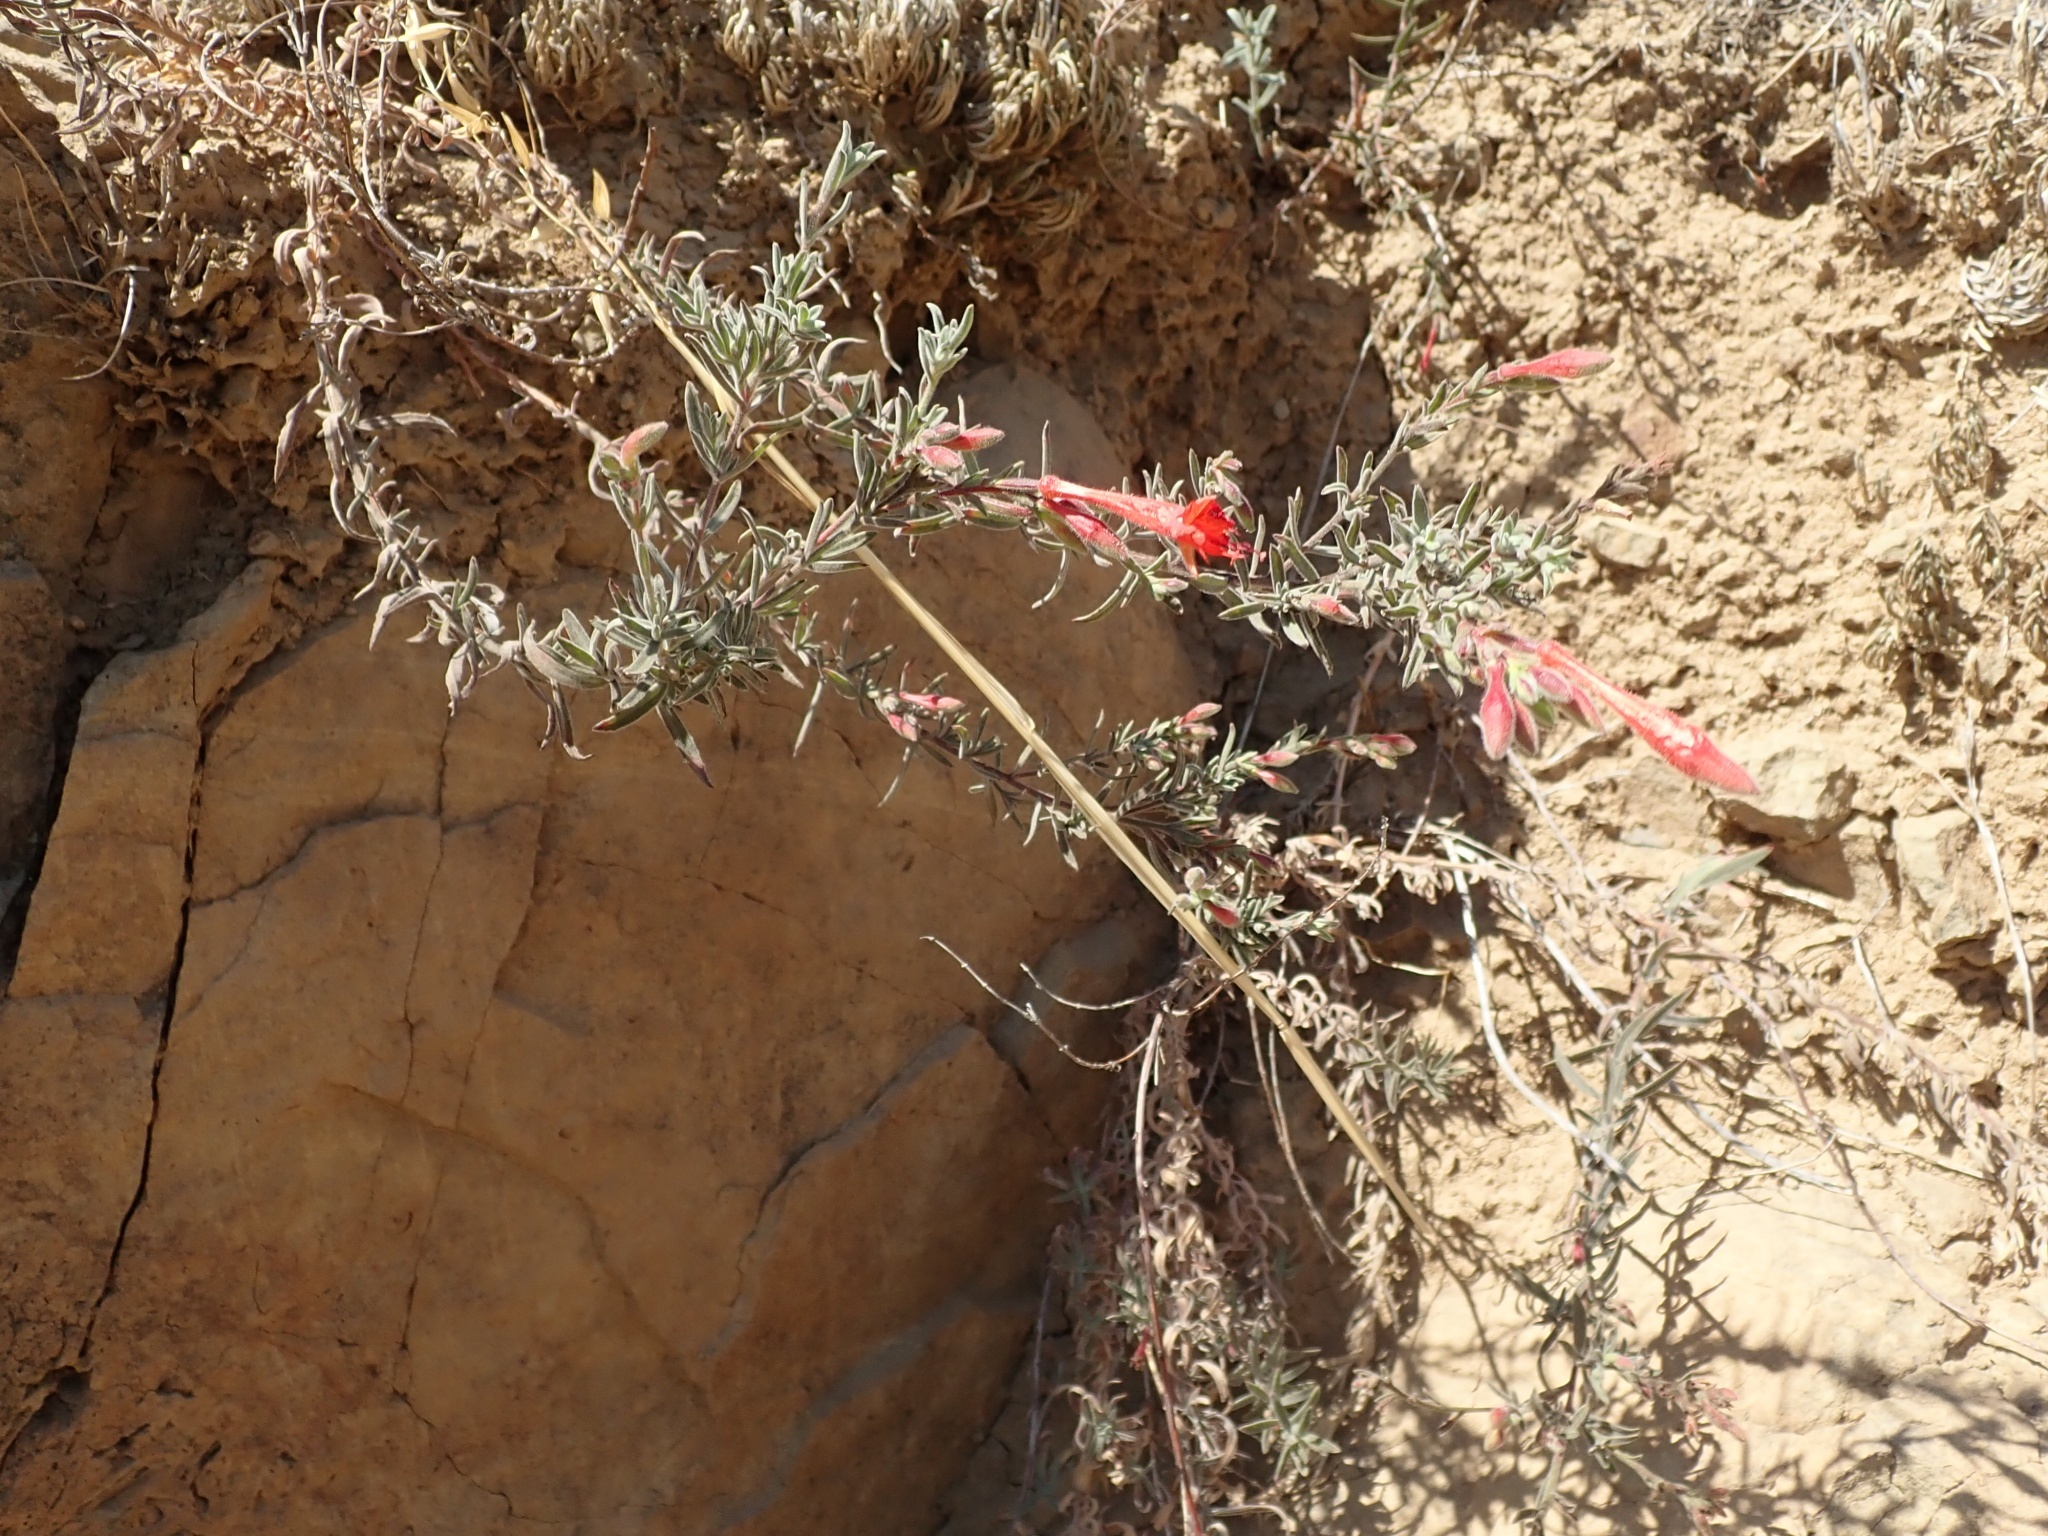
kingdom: Plantae
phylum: Tracheophyta
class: Magnoliopsida
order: Myrtales
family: Onagraceae
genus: Epilobium
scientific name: Epilobium canum
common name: California-fuchsia
